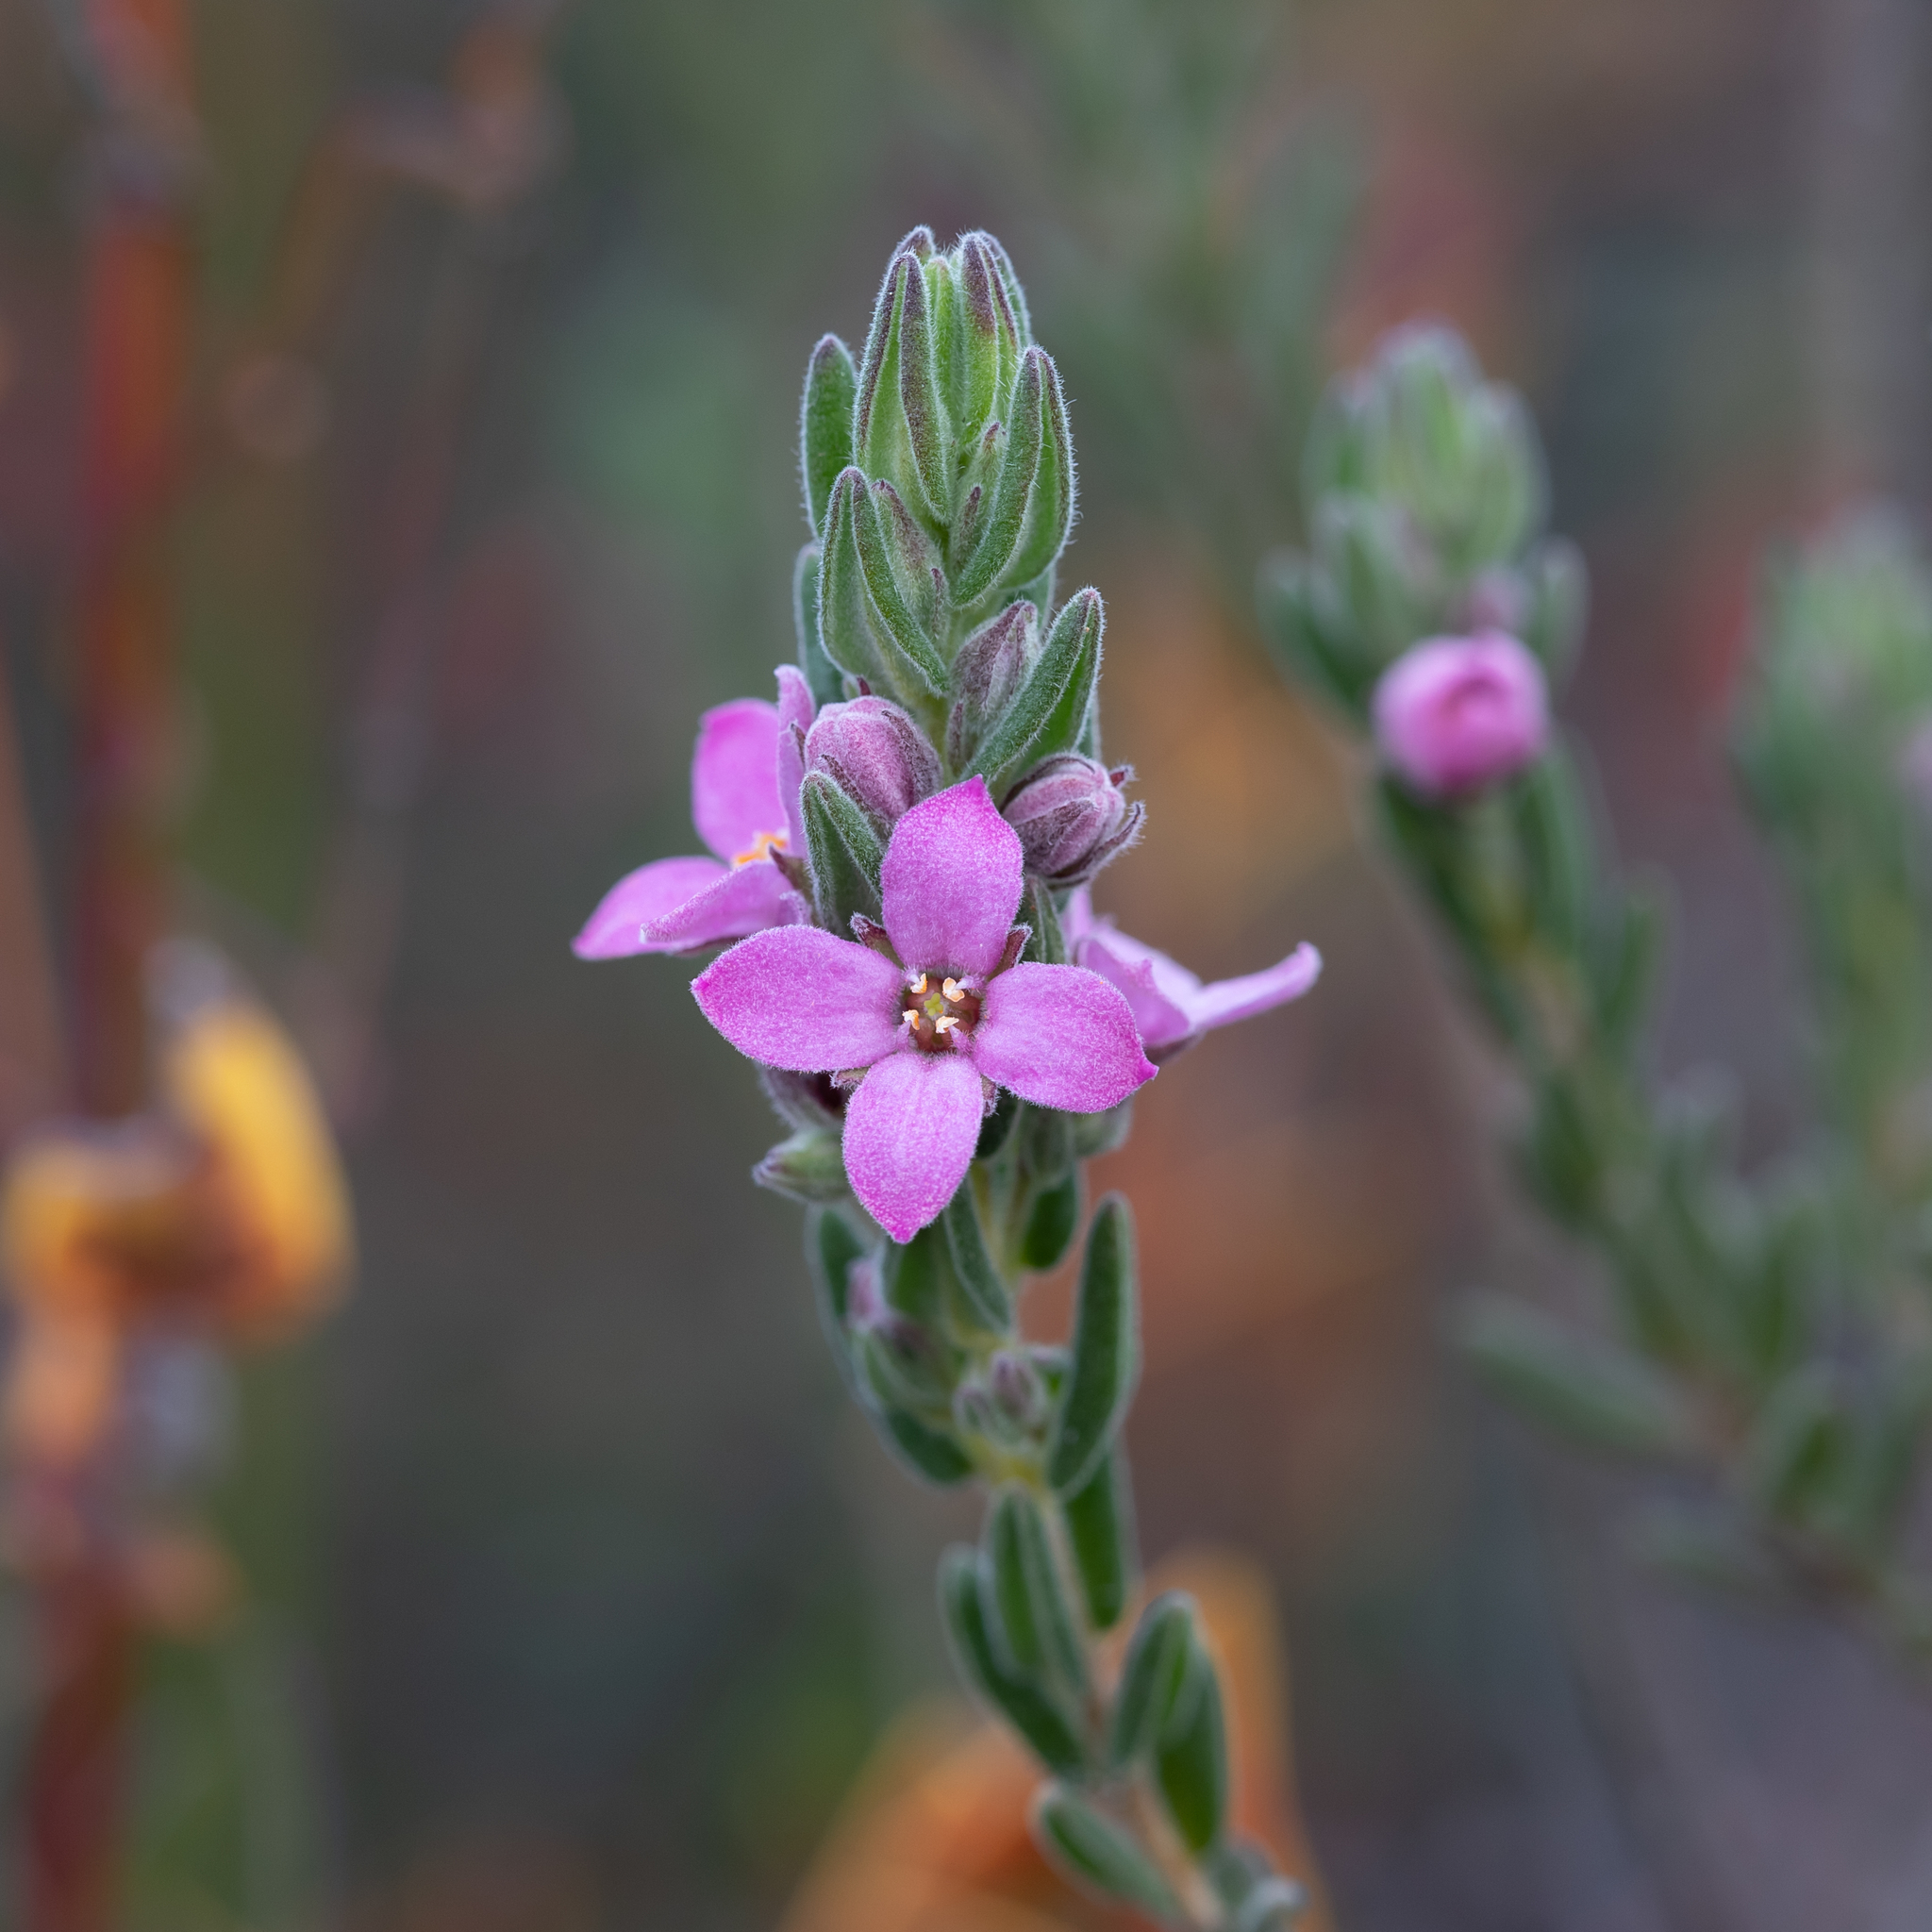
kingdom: Plantae
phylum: Tracheophyta
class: Magnoliopsida
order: Sapindales
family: Rutaceae
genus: Zieria
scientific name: Zieria veronicea
